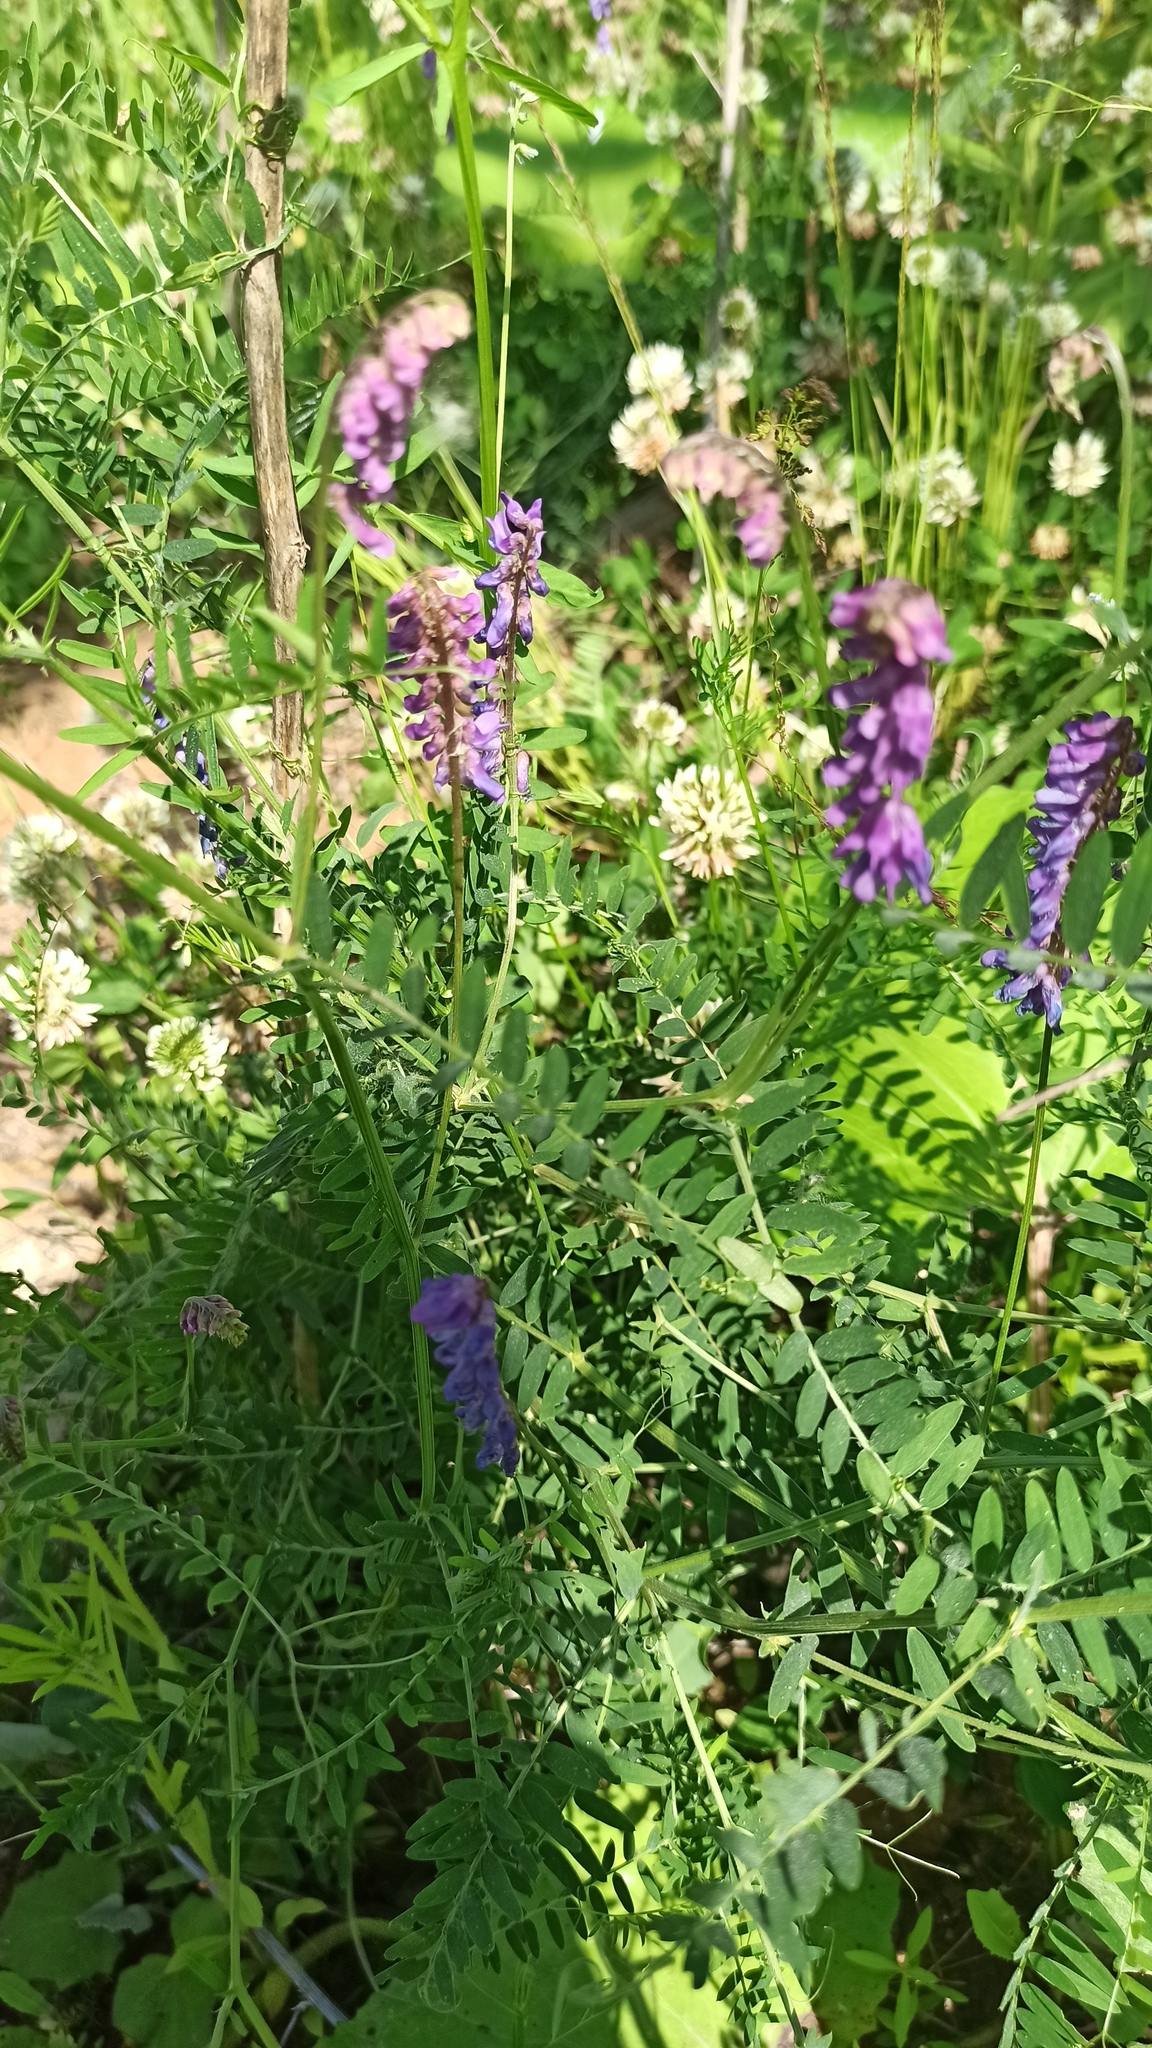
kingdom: Plantae
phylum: Tracheophyta
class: Magnoliopsida
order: Fabales
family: Fabaceae
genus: Vicia
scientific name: Vicia cracca
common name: Bird vetch
